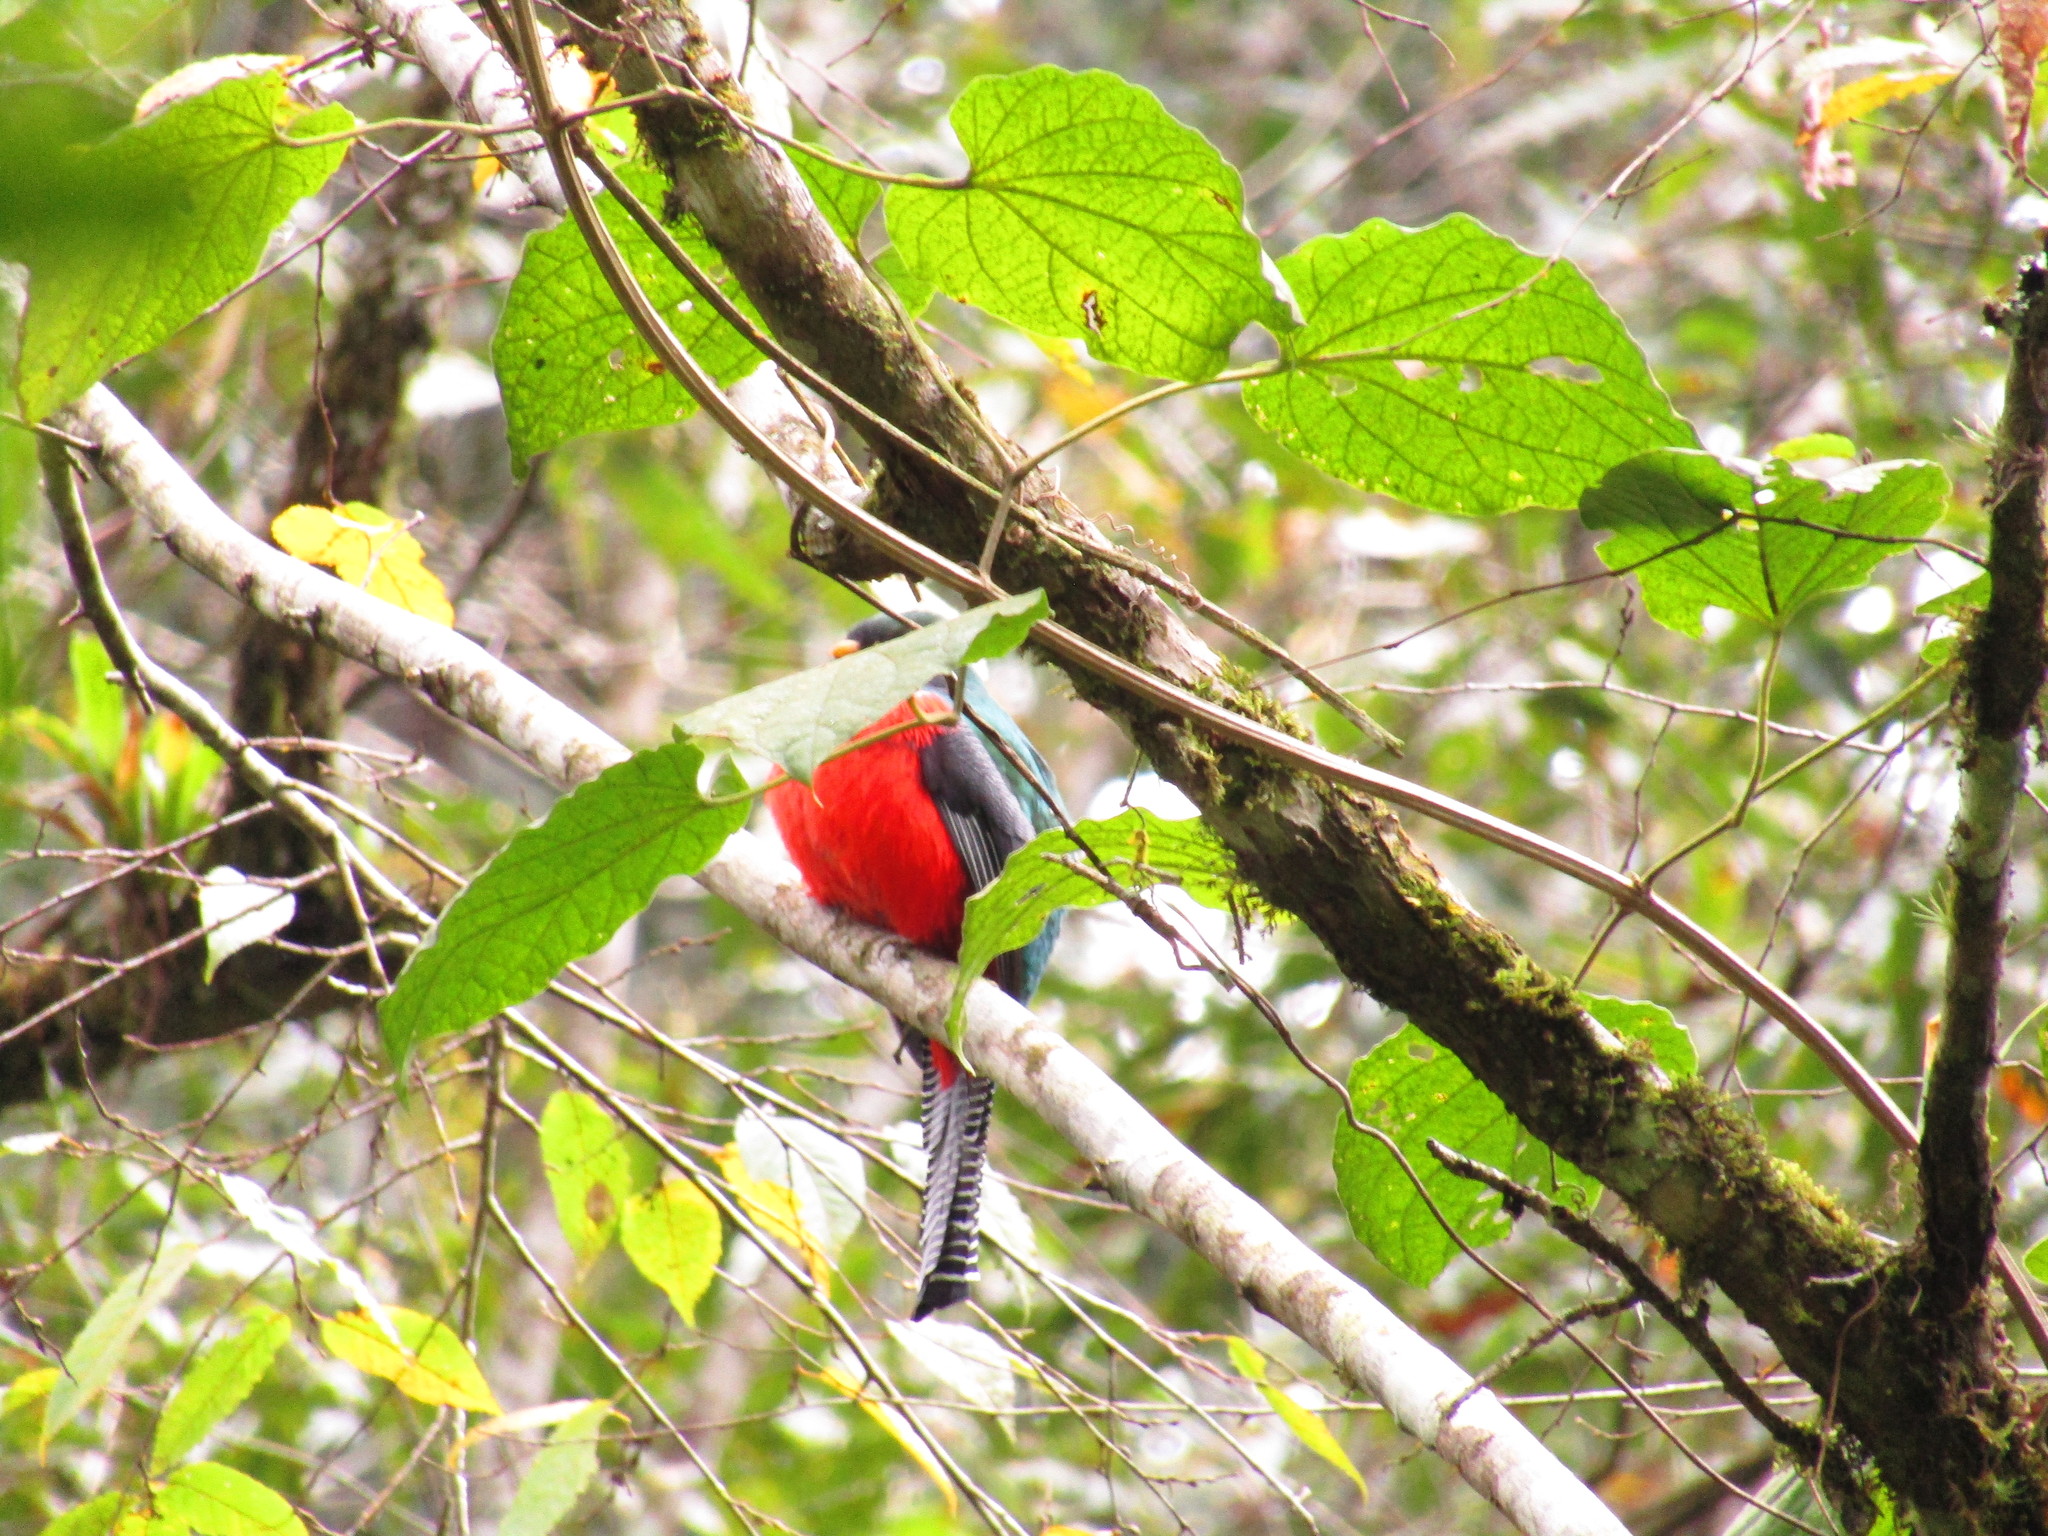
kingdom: Animalia
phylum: Chordata
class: Aves
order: Trogoniformes
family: Trogonidae
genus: Trogon
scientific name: Trogon collaris
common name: Collared trogon
